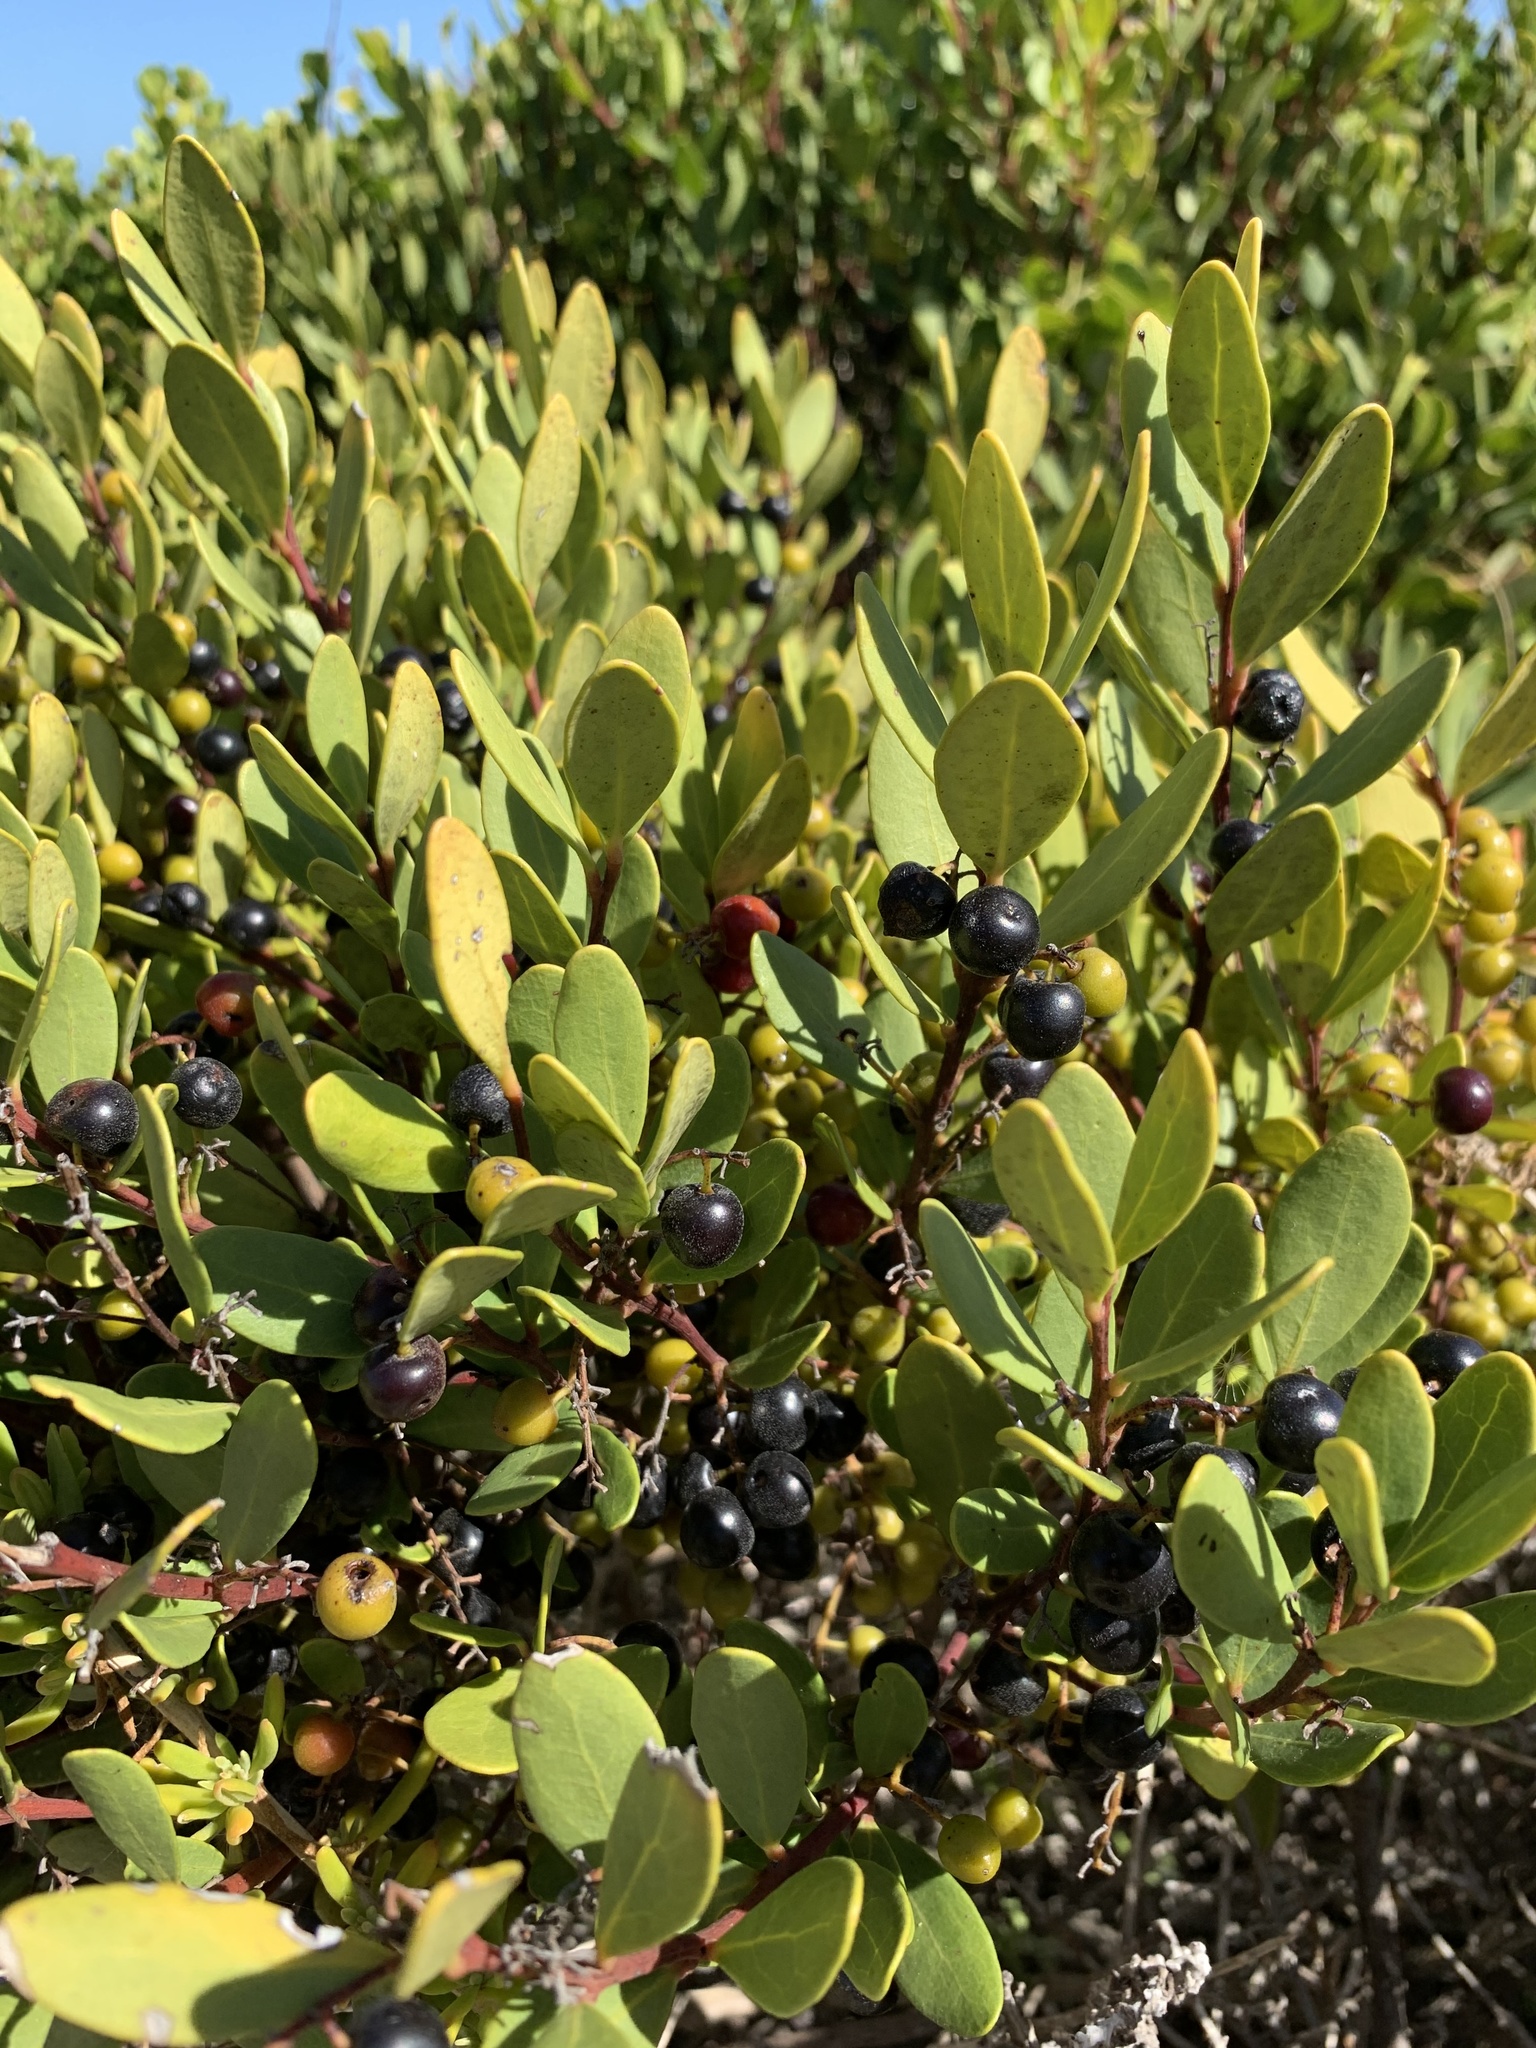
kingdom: Plantae
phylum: Tracheophyta
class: Magnoliopsida
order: Ericales
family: Ebenaceae
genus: Euclea
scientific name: Euclea racemosa
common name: Dune guarri
